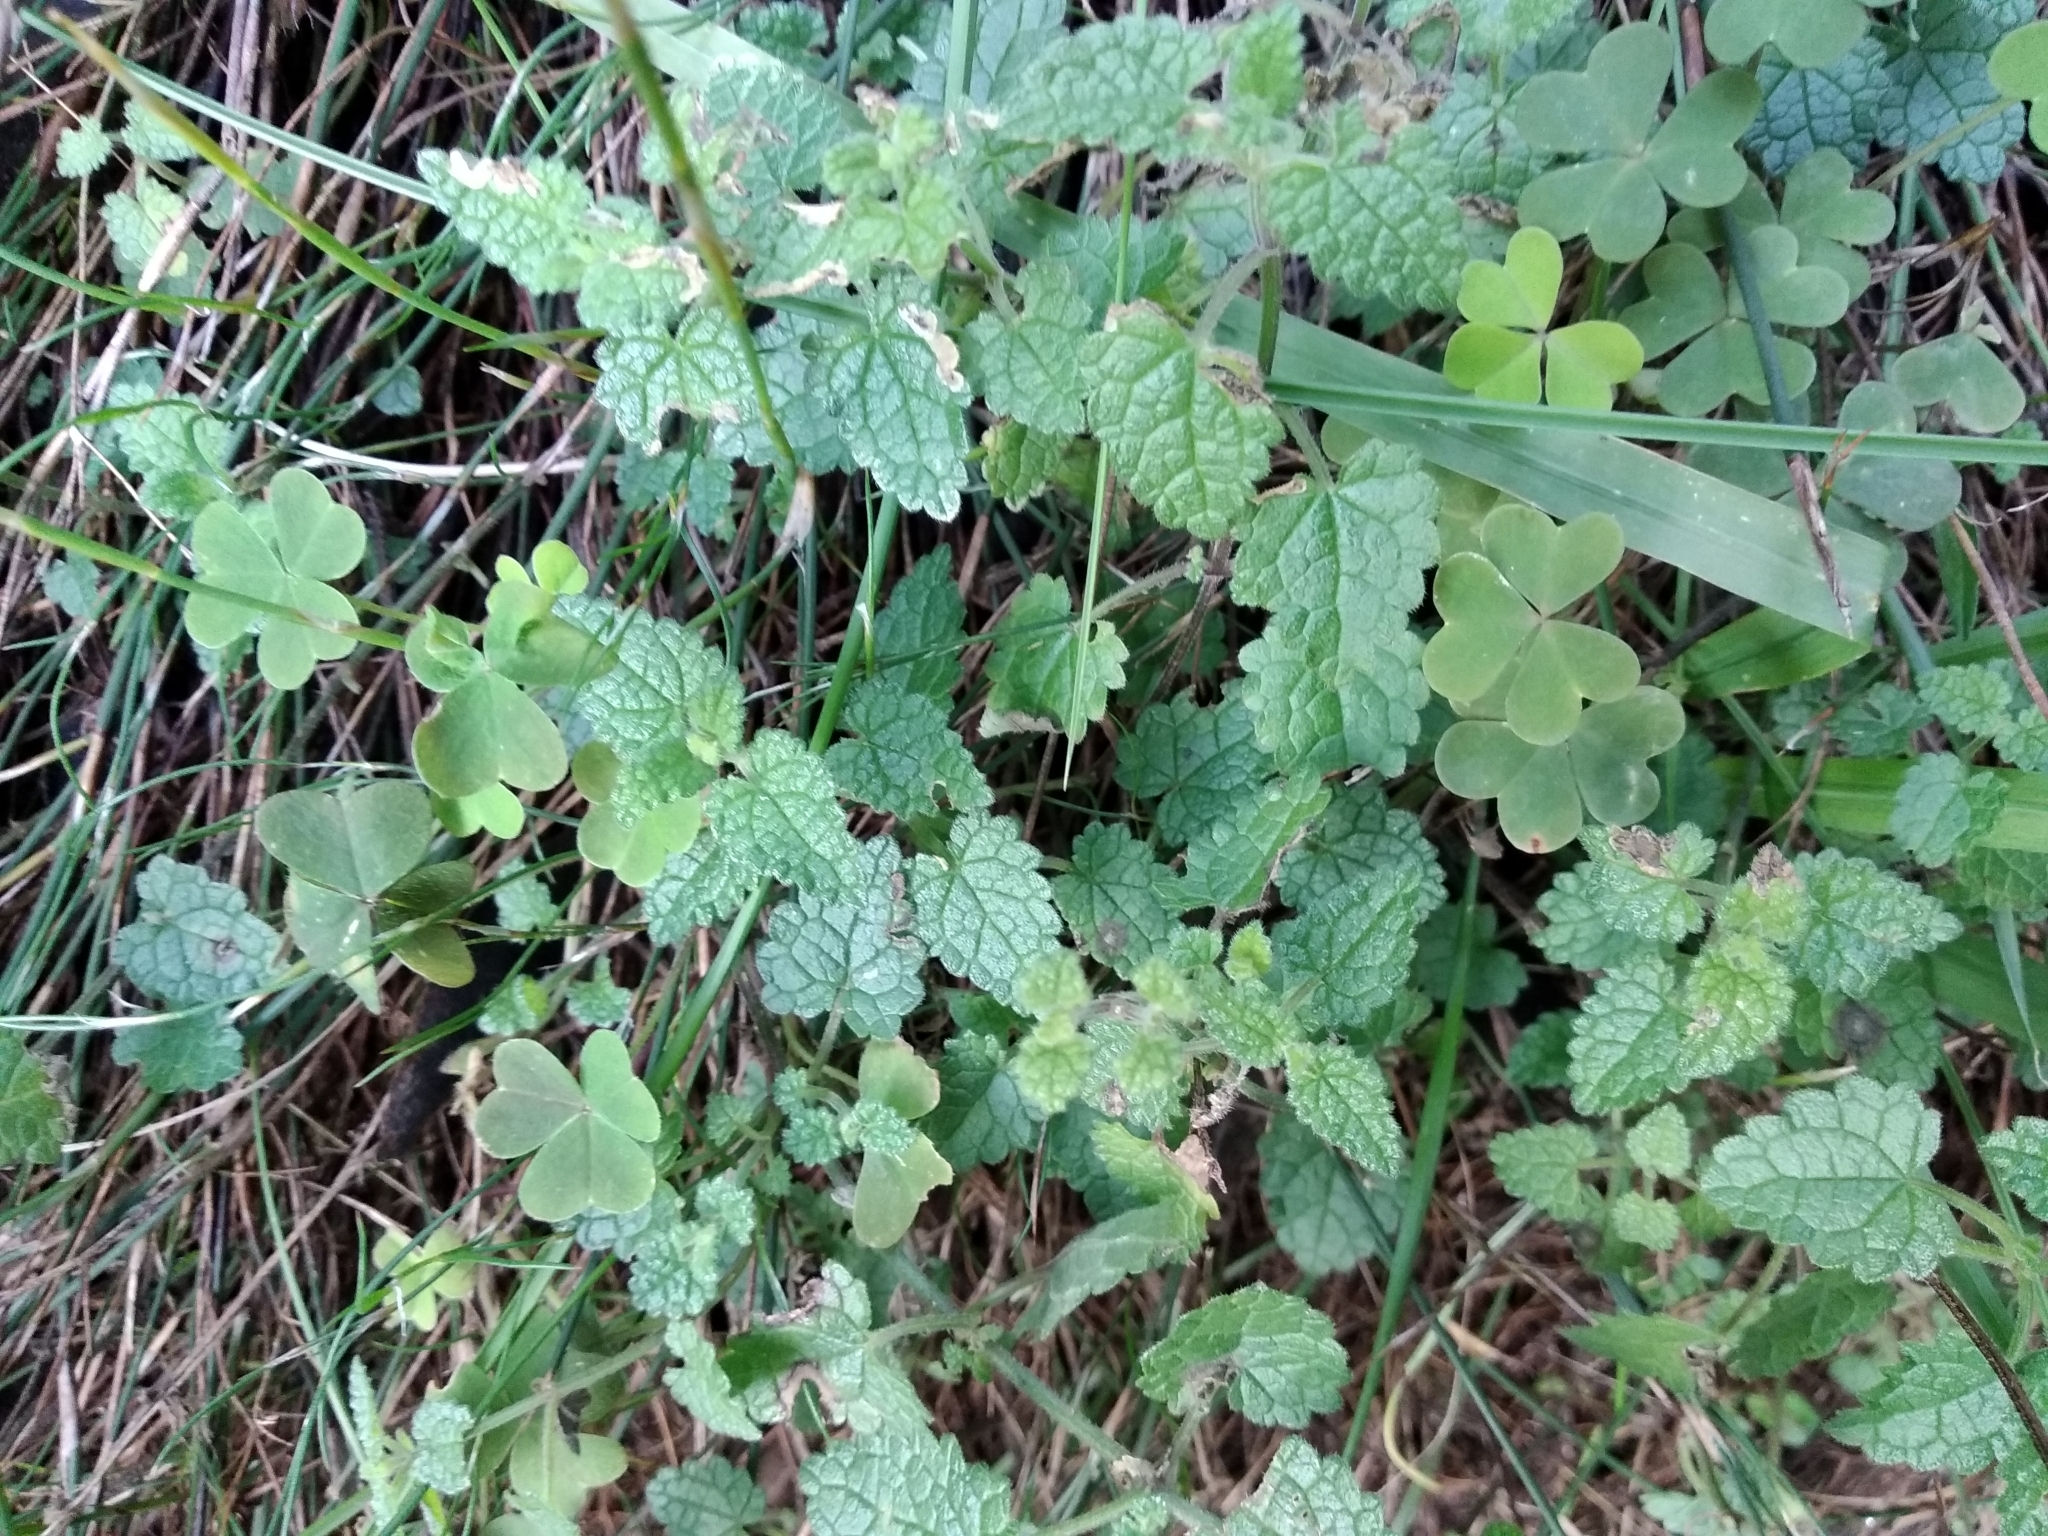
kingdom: Plantae
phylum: Tracheophyta
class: Magnoliopsida
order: Lamiales
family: Lamiaceae
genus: Stachys
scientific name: Stachys aethiopica
